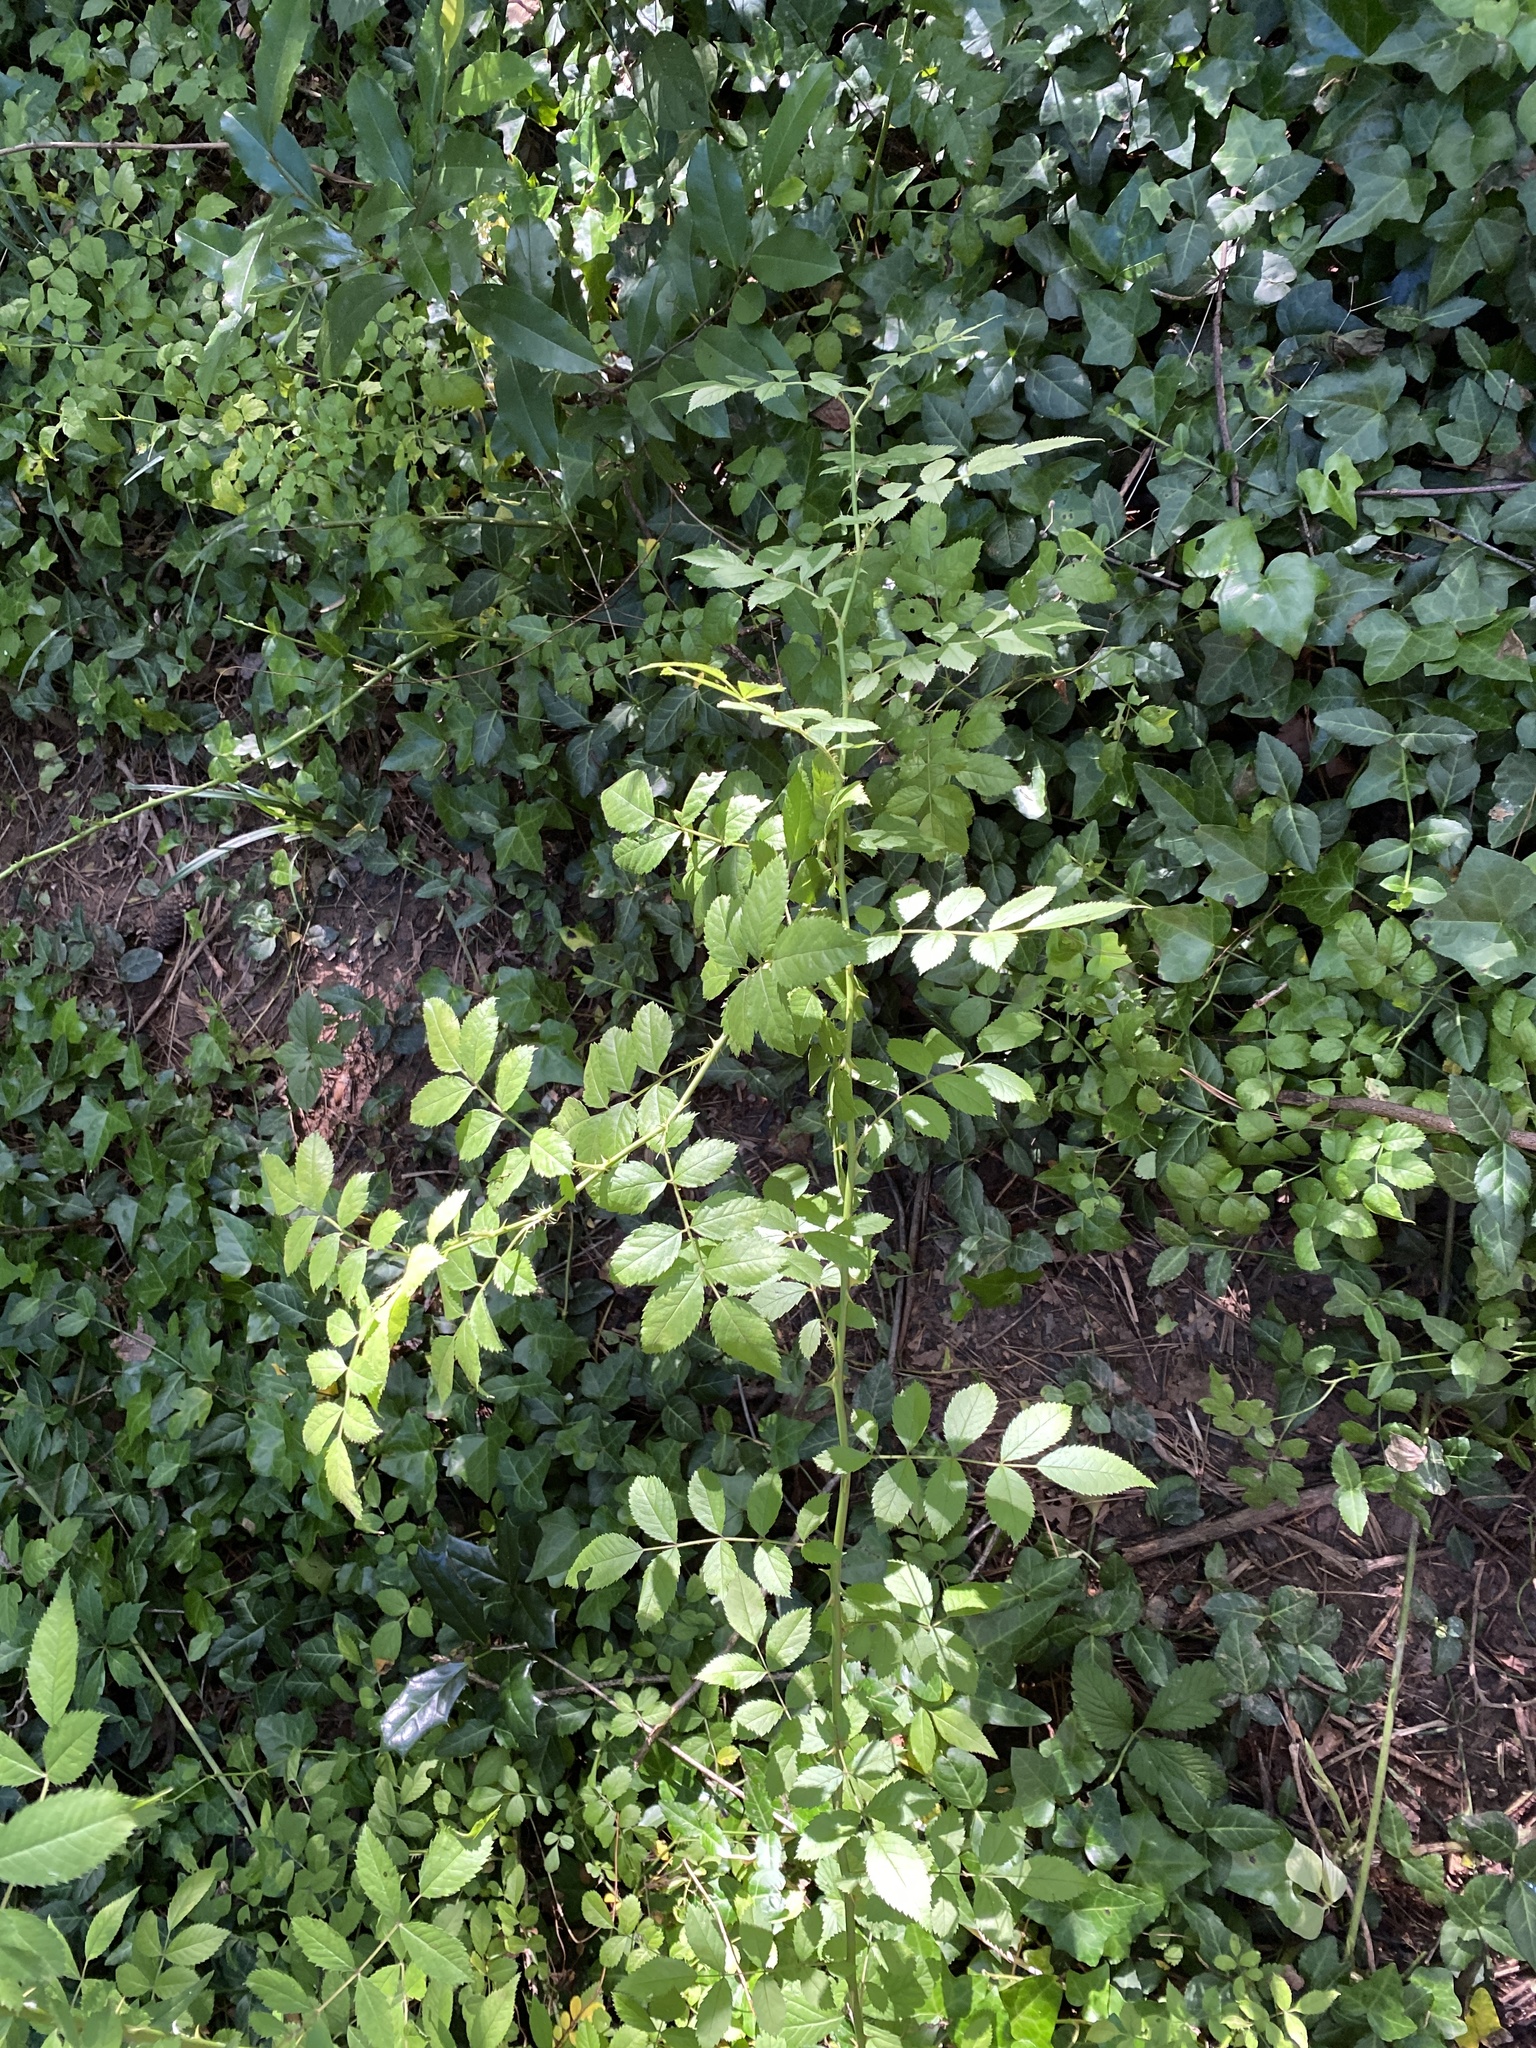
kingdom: Plantae
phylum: Tracheophyta
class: Magnoliopsida
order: Rosales
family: Rosaceae
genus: Rosa
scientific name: Rosa multiflora
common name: Multiflora rose
